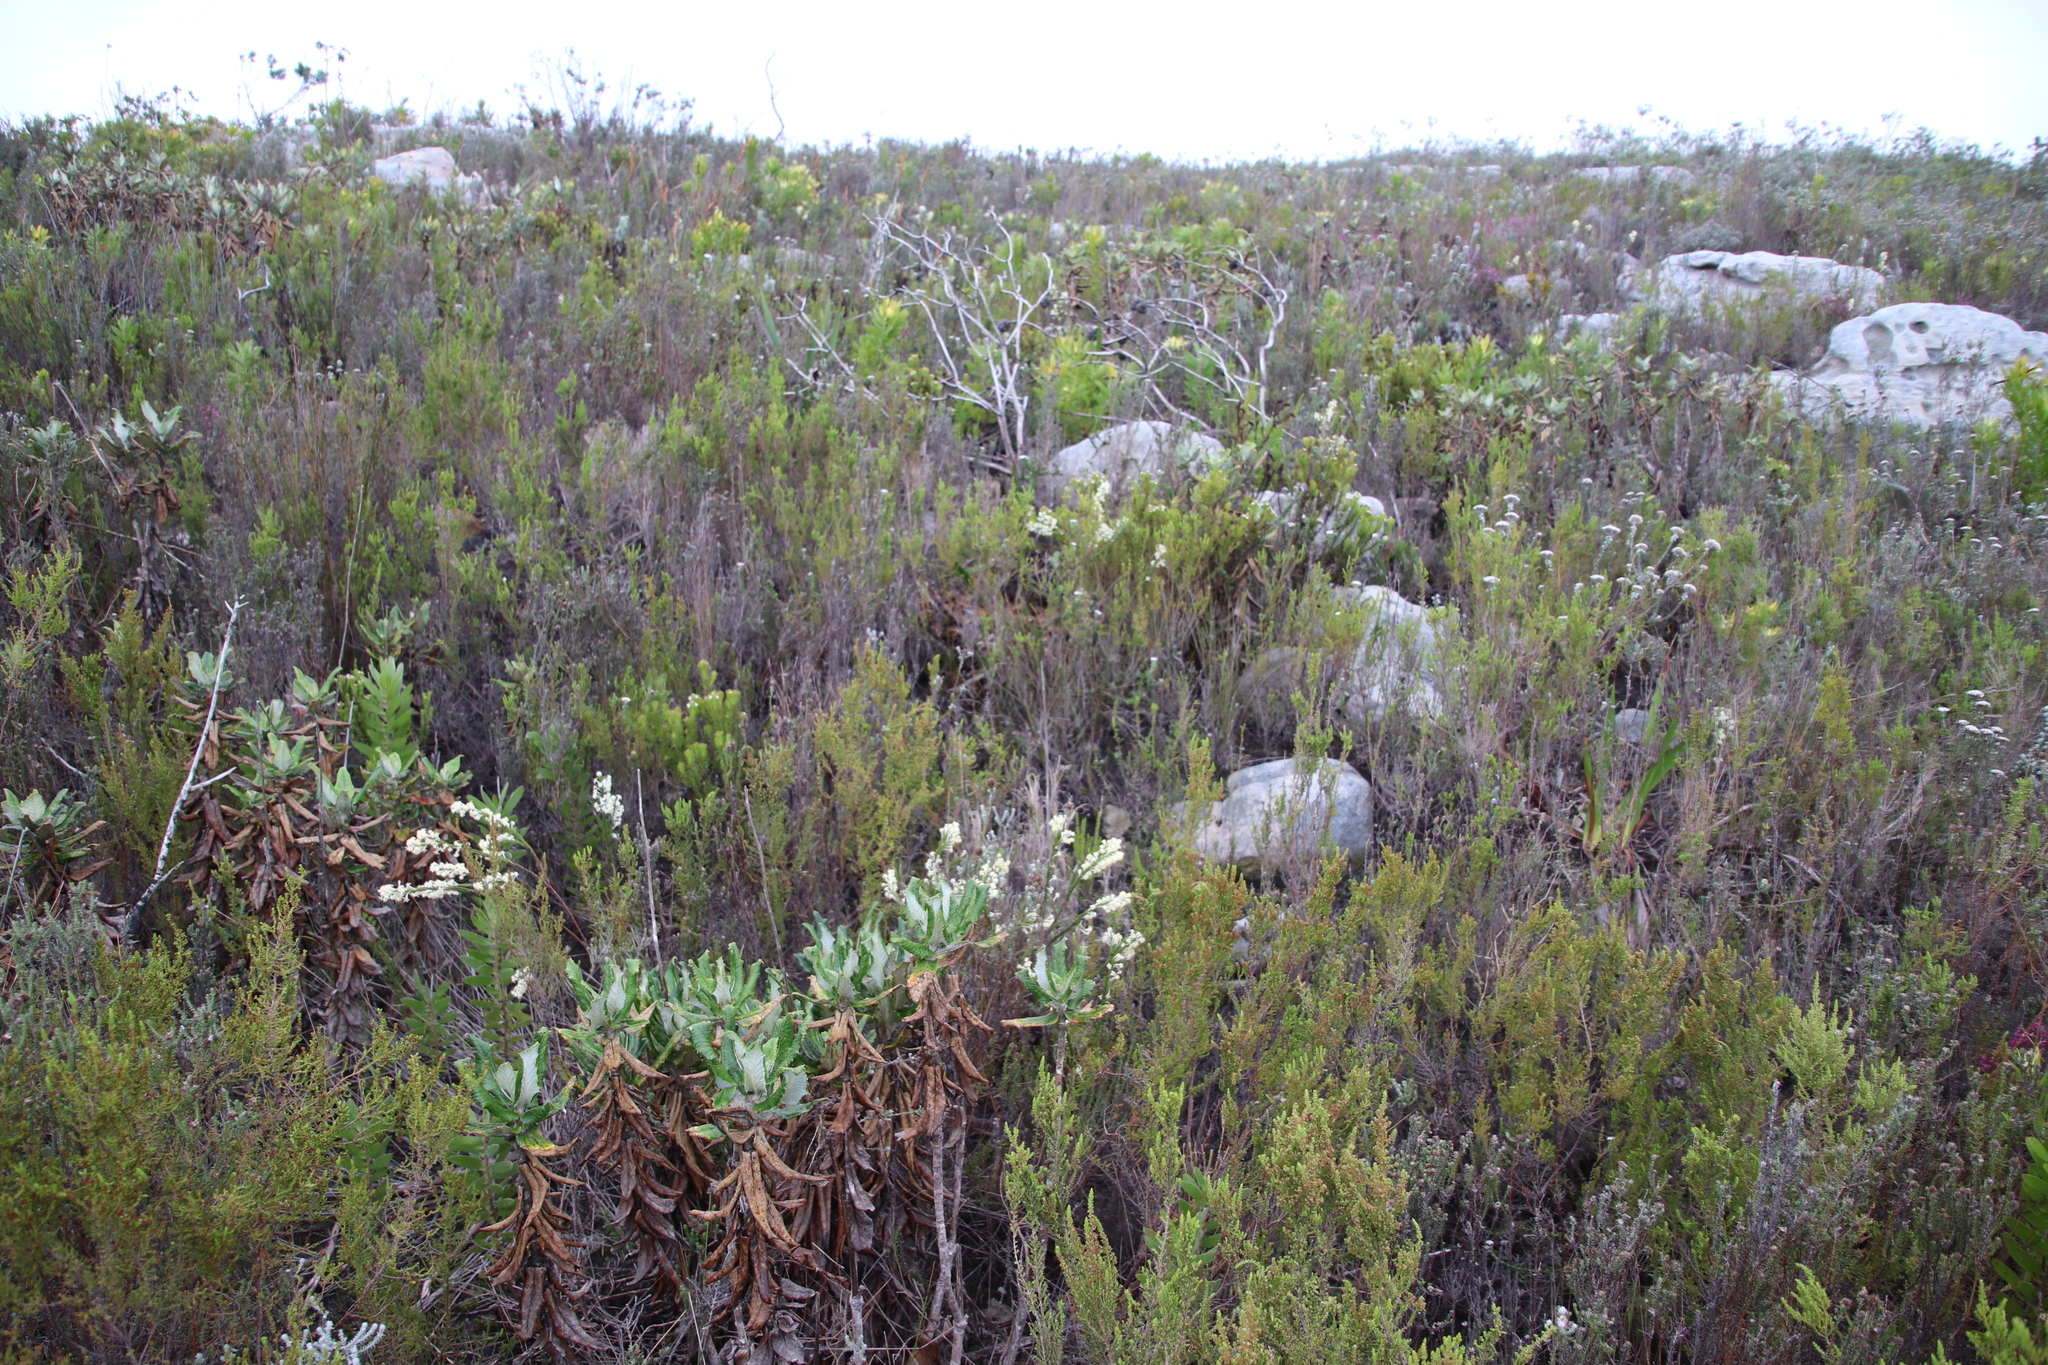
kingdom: Plantae
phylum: Tracheophyta
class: Magnoliopsida
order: Malvales
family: Thymelaeaceae
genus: Struthiola
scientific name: Struthiola ciliata
